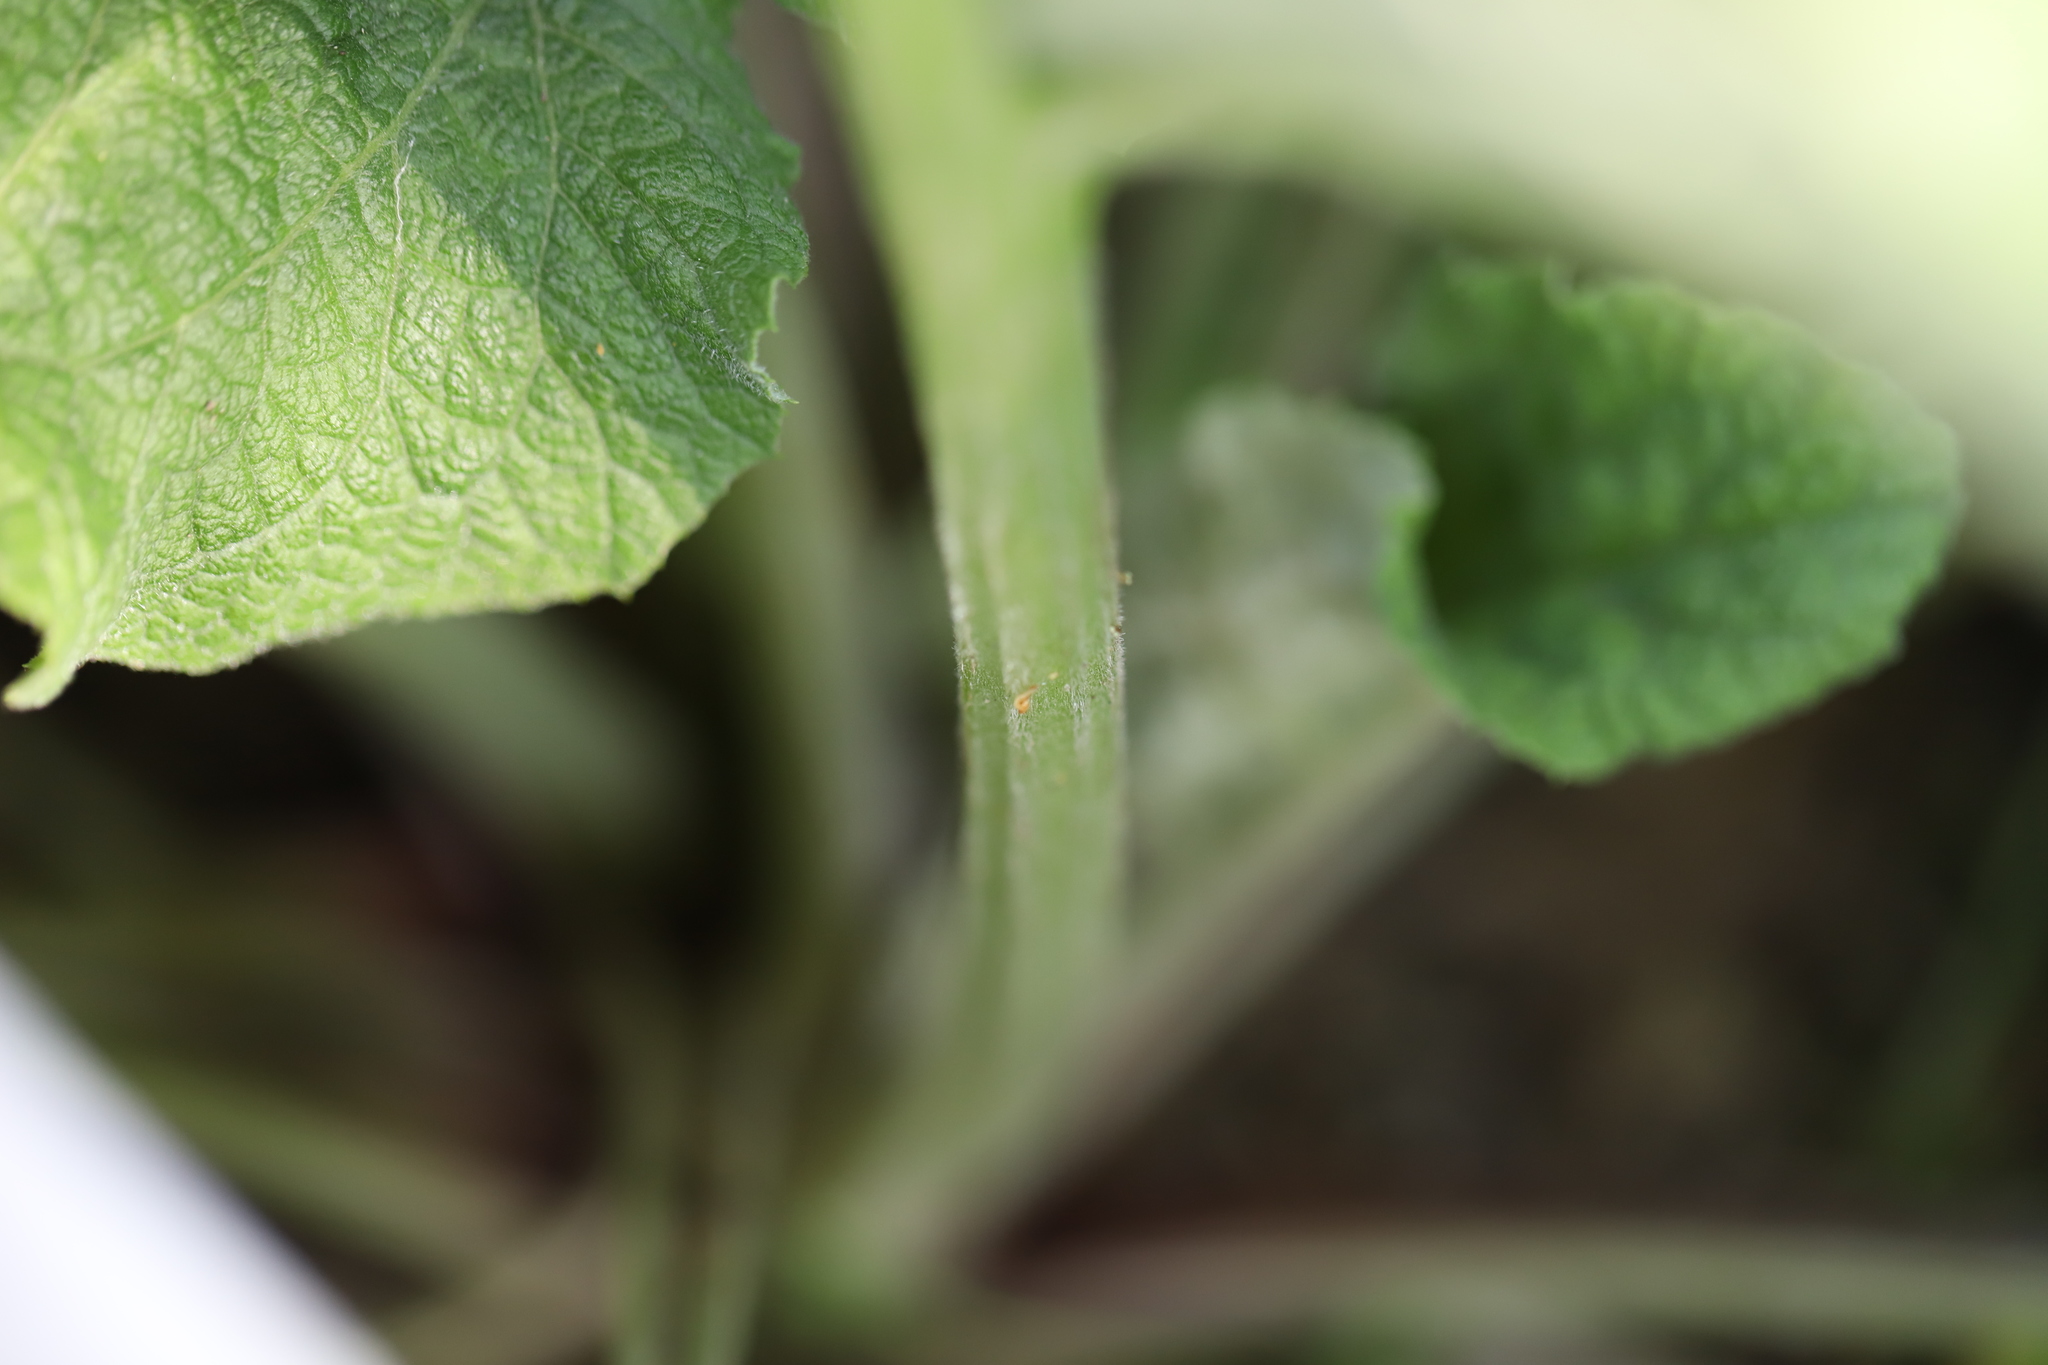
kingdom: Plantae
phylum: Tracheophyta
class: Magnoliopsida
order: Asterales
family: Asteraceae
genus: Arctium
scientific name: Arctium
